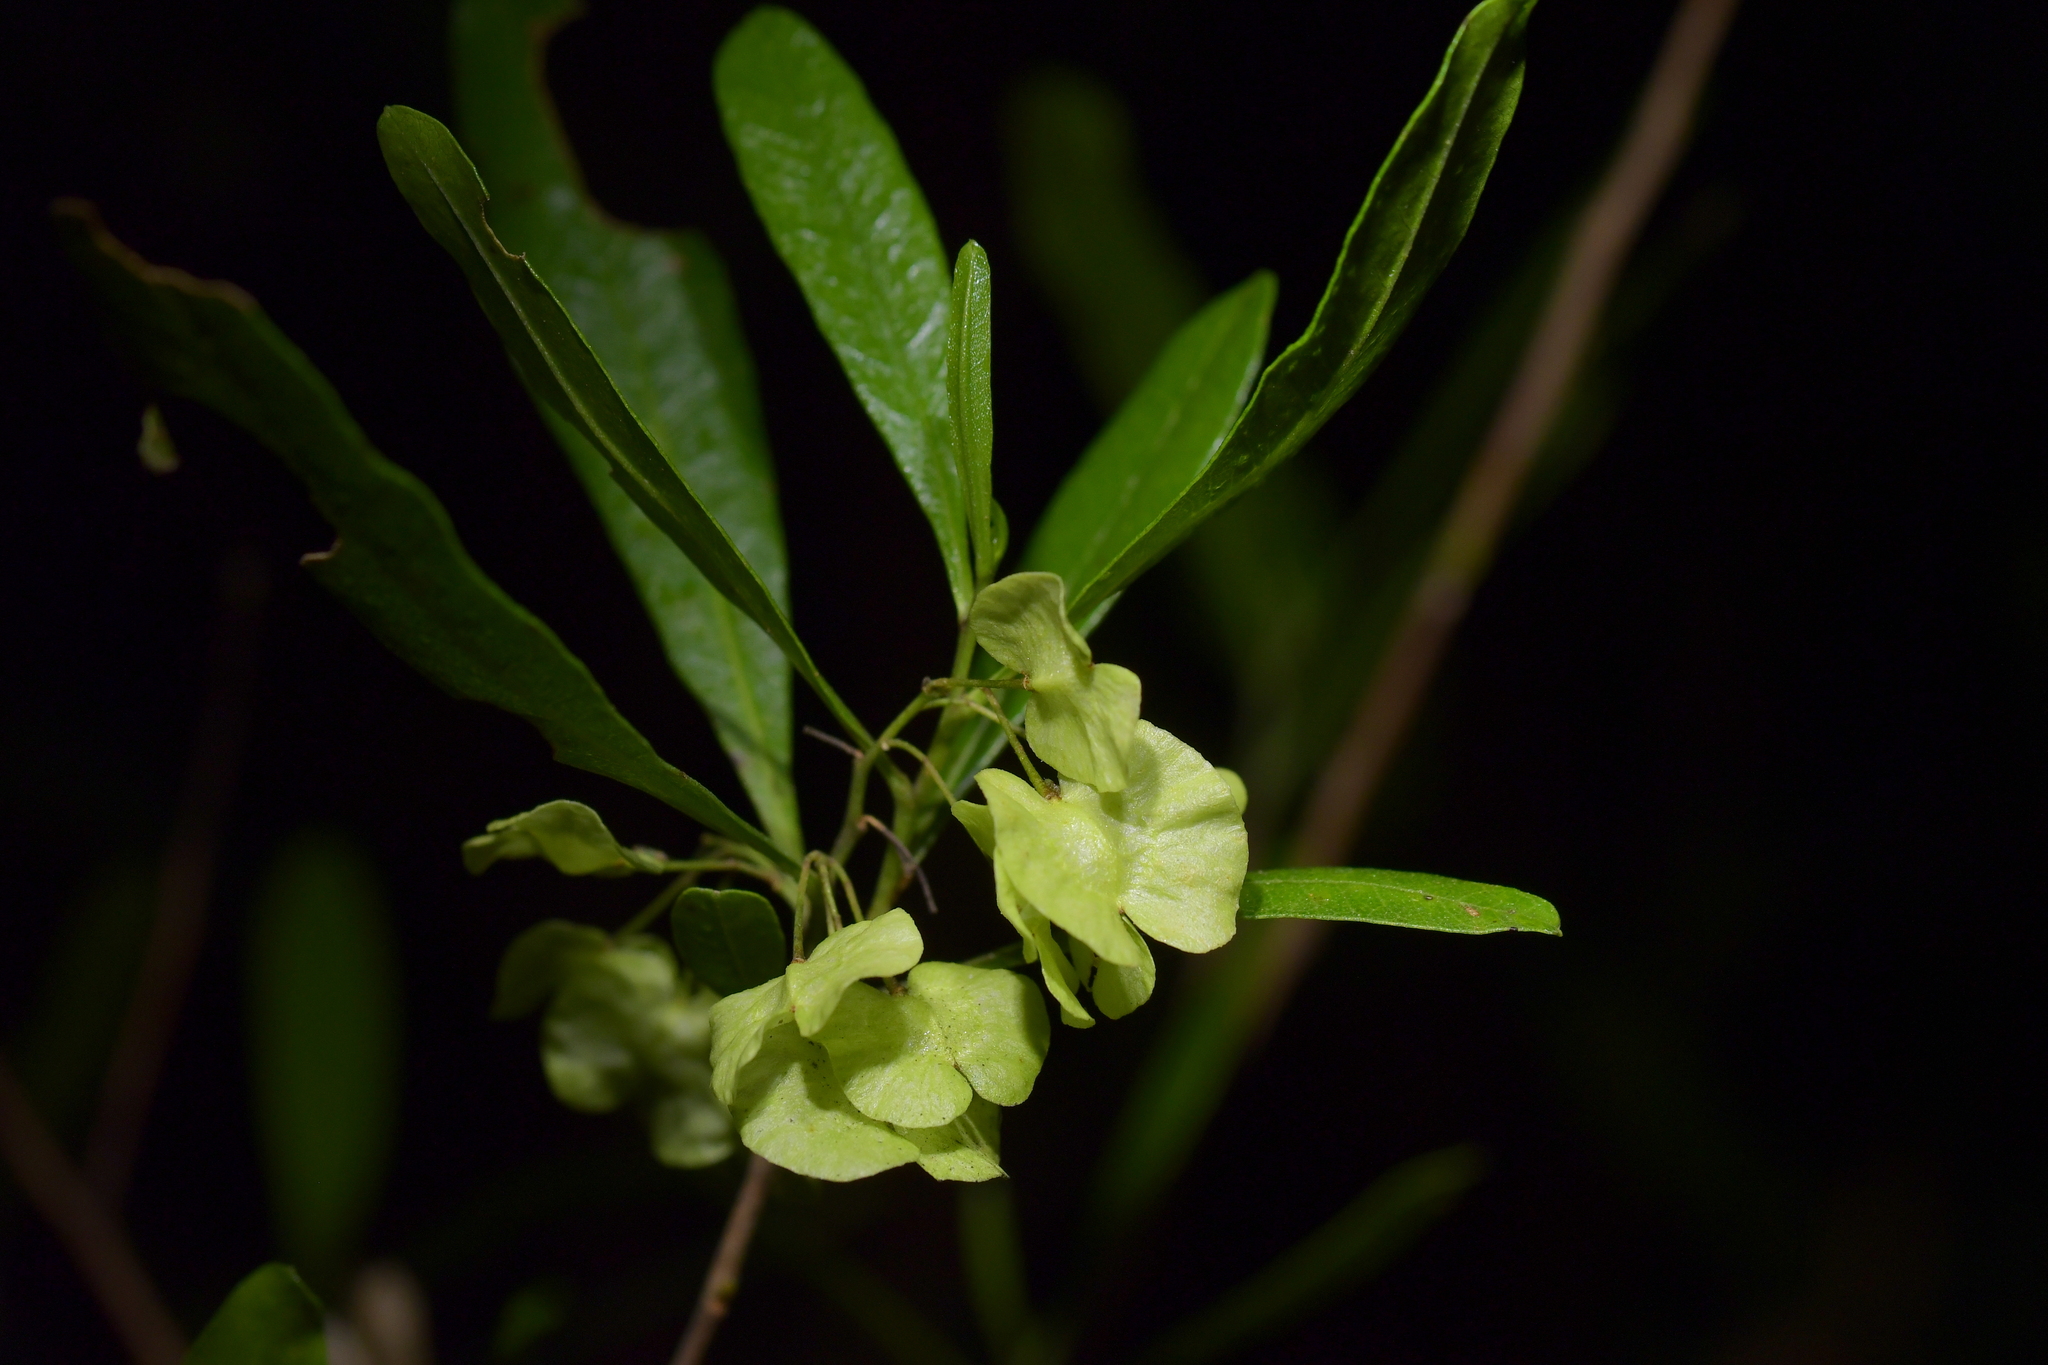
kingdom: Plantae
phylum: Tracheophyta
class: Magnoliopsida
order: Sapindales
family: Sapindaceae
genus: Dodonaea
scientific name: Dodonaea viscosa
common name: Hopbush
